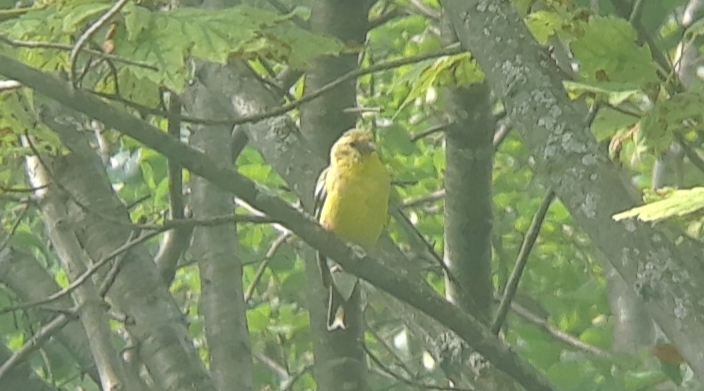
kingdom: Animalia
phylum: Chordata
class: Aves
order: Passeriformes
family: Fringillidae
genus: Spinus
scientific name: Spinus tristis
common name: American goldfinch
